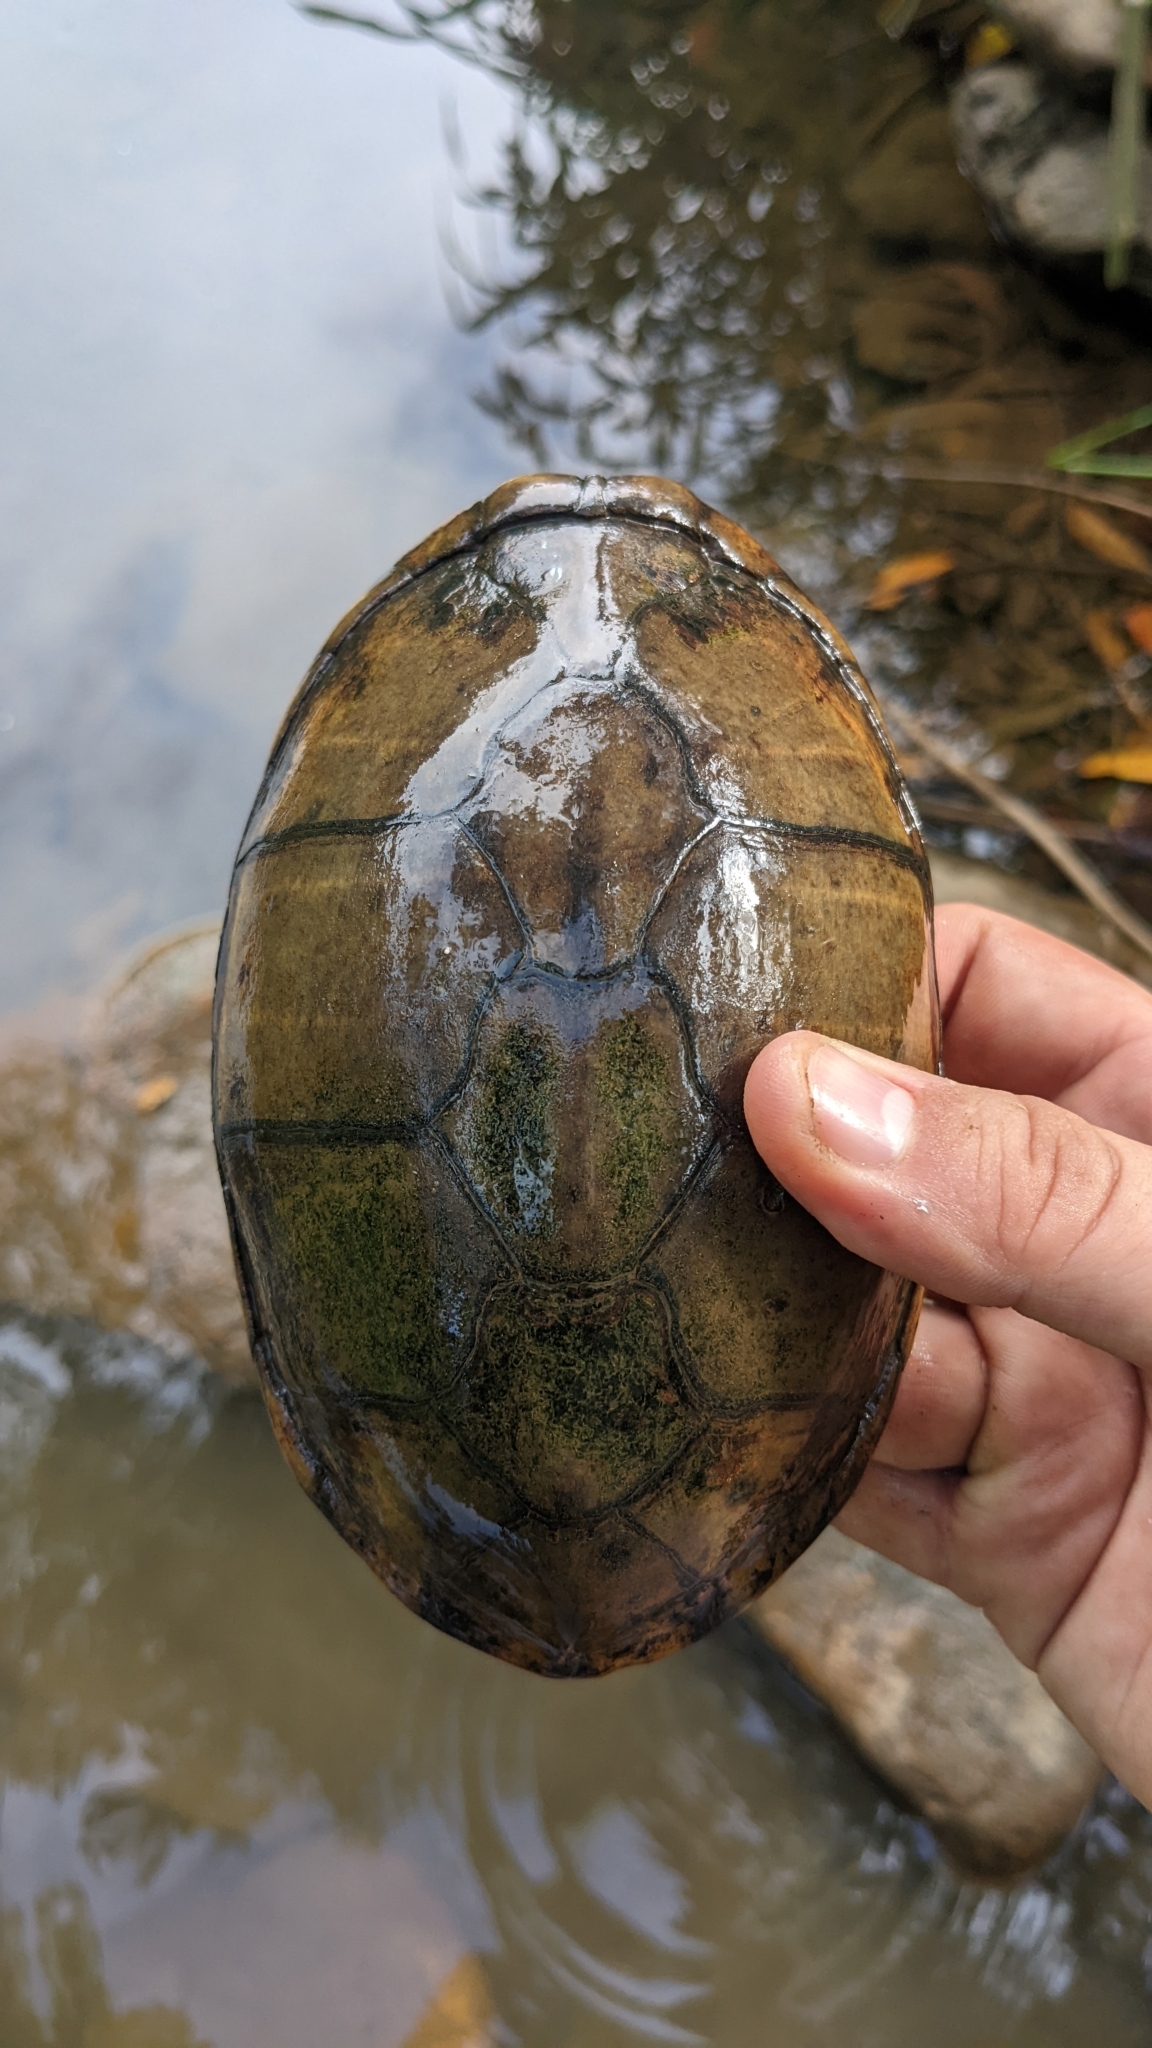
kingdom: Animalia
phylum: Chordata
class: Testudines
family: Kinosternidae
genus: Kinosternon
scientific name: Kinosternon leucostomum
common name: White-lipped mud turtle
